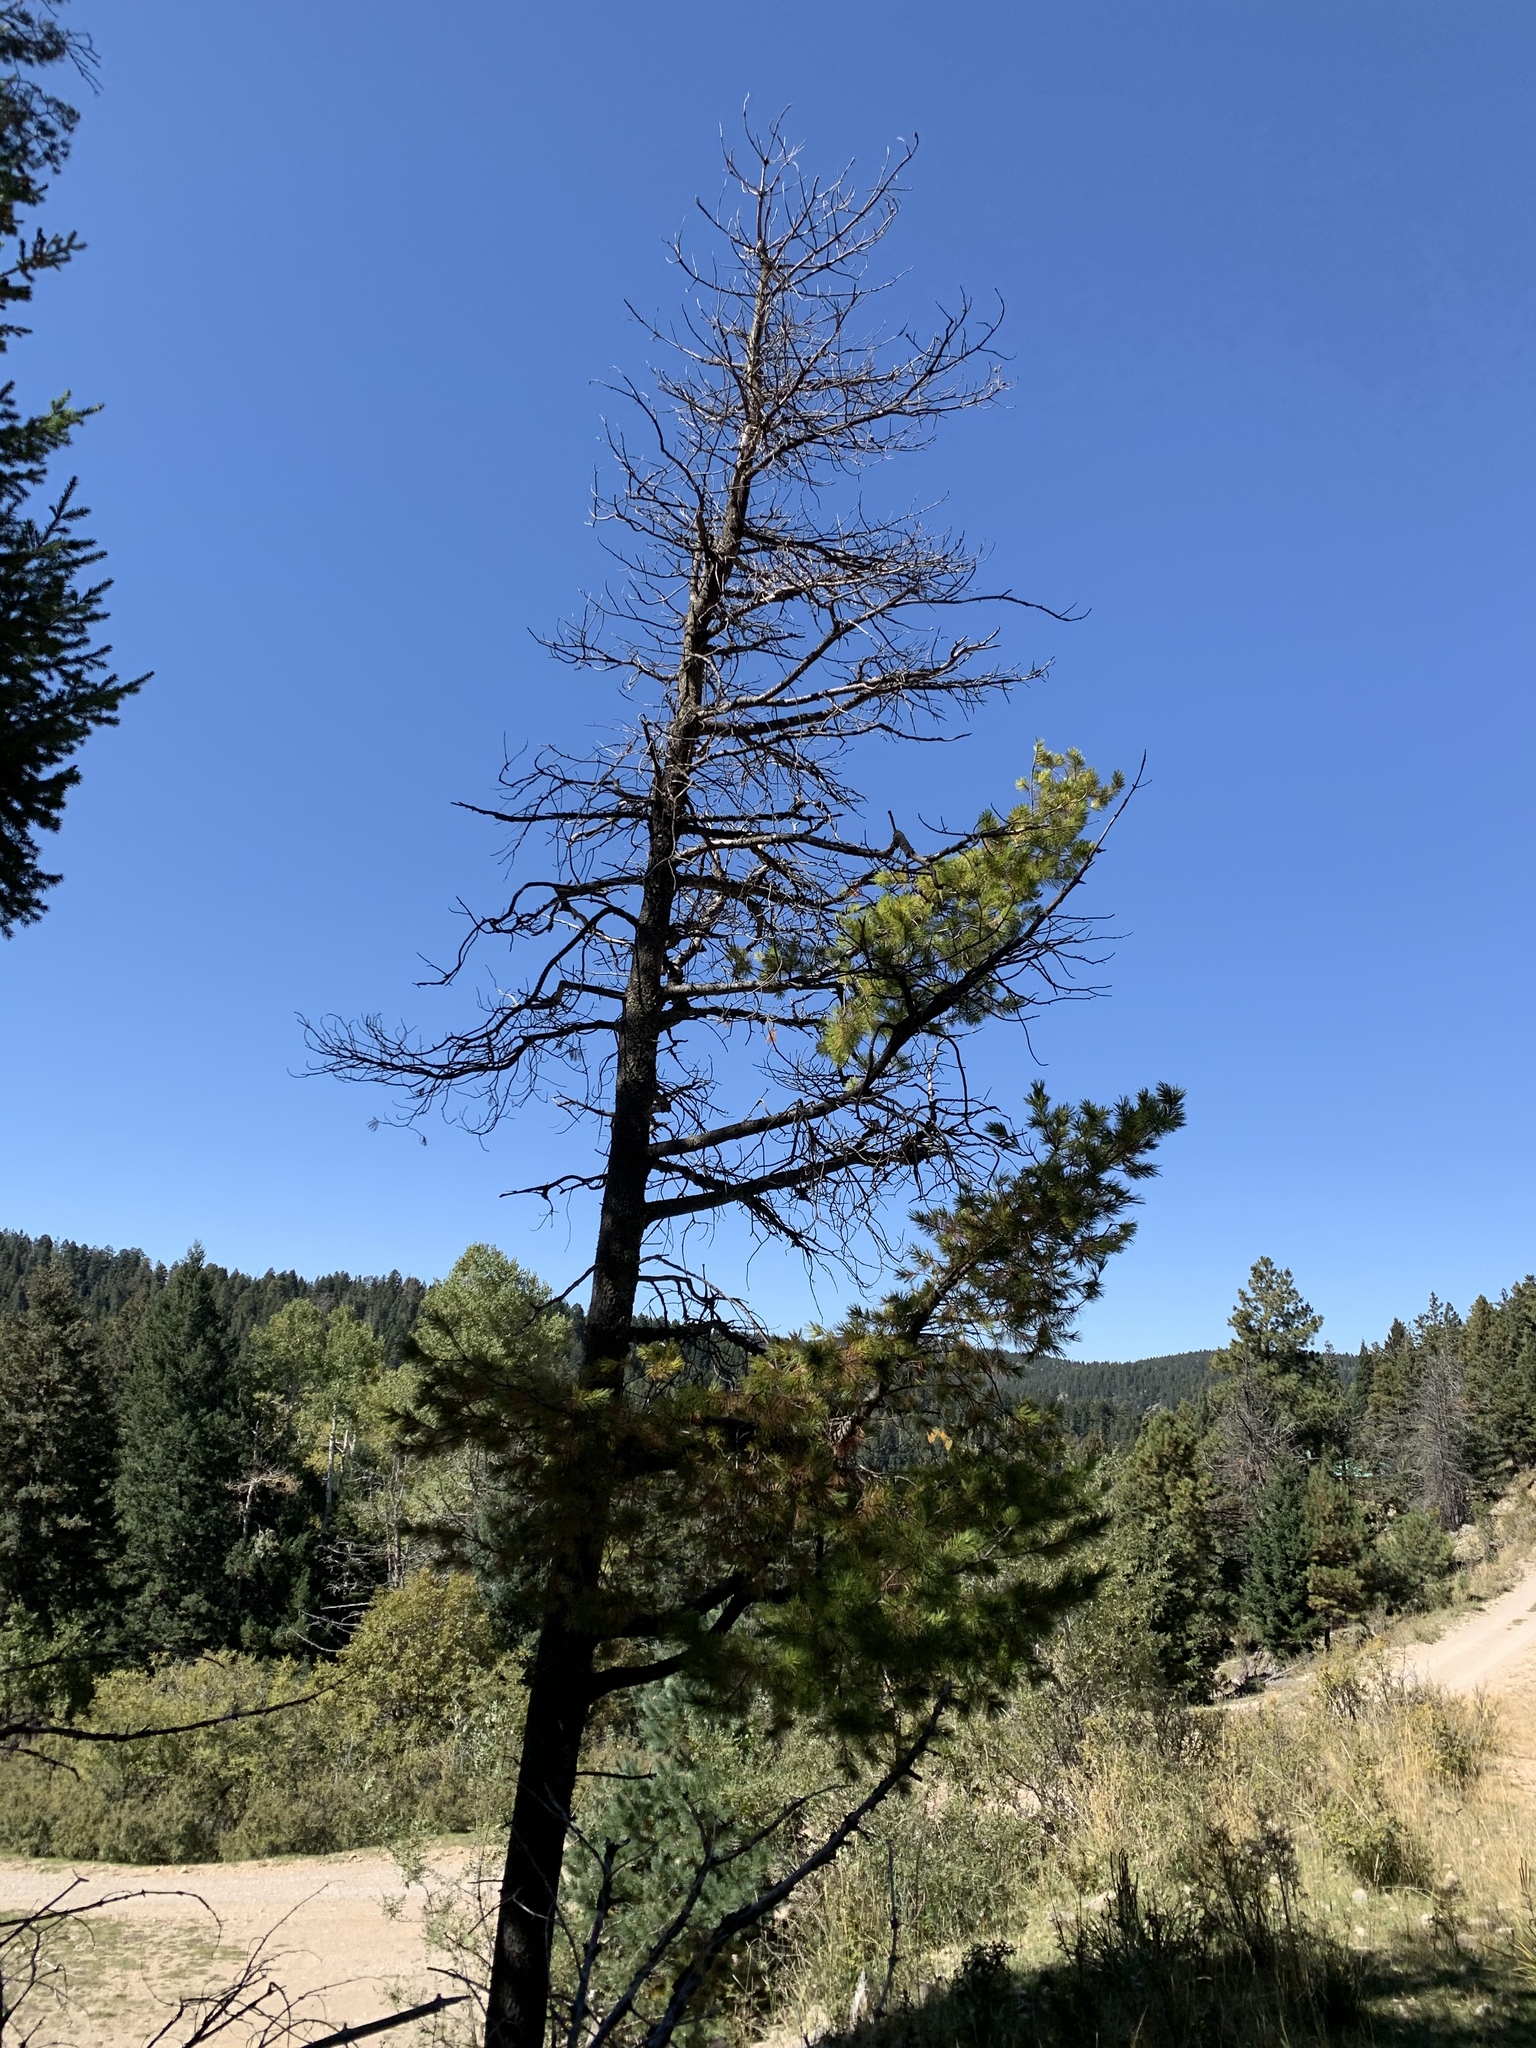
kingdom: Plantae
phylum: Tracheophyta
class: Pinopsida
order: Pinales
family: Pinaceae
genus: Pinus
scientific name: Pinus strobiformis
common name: Southwestern white pine
